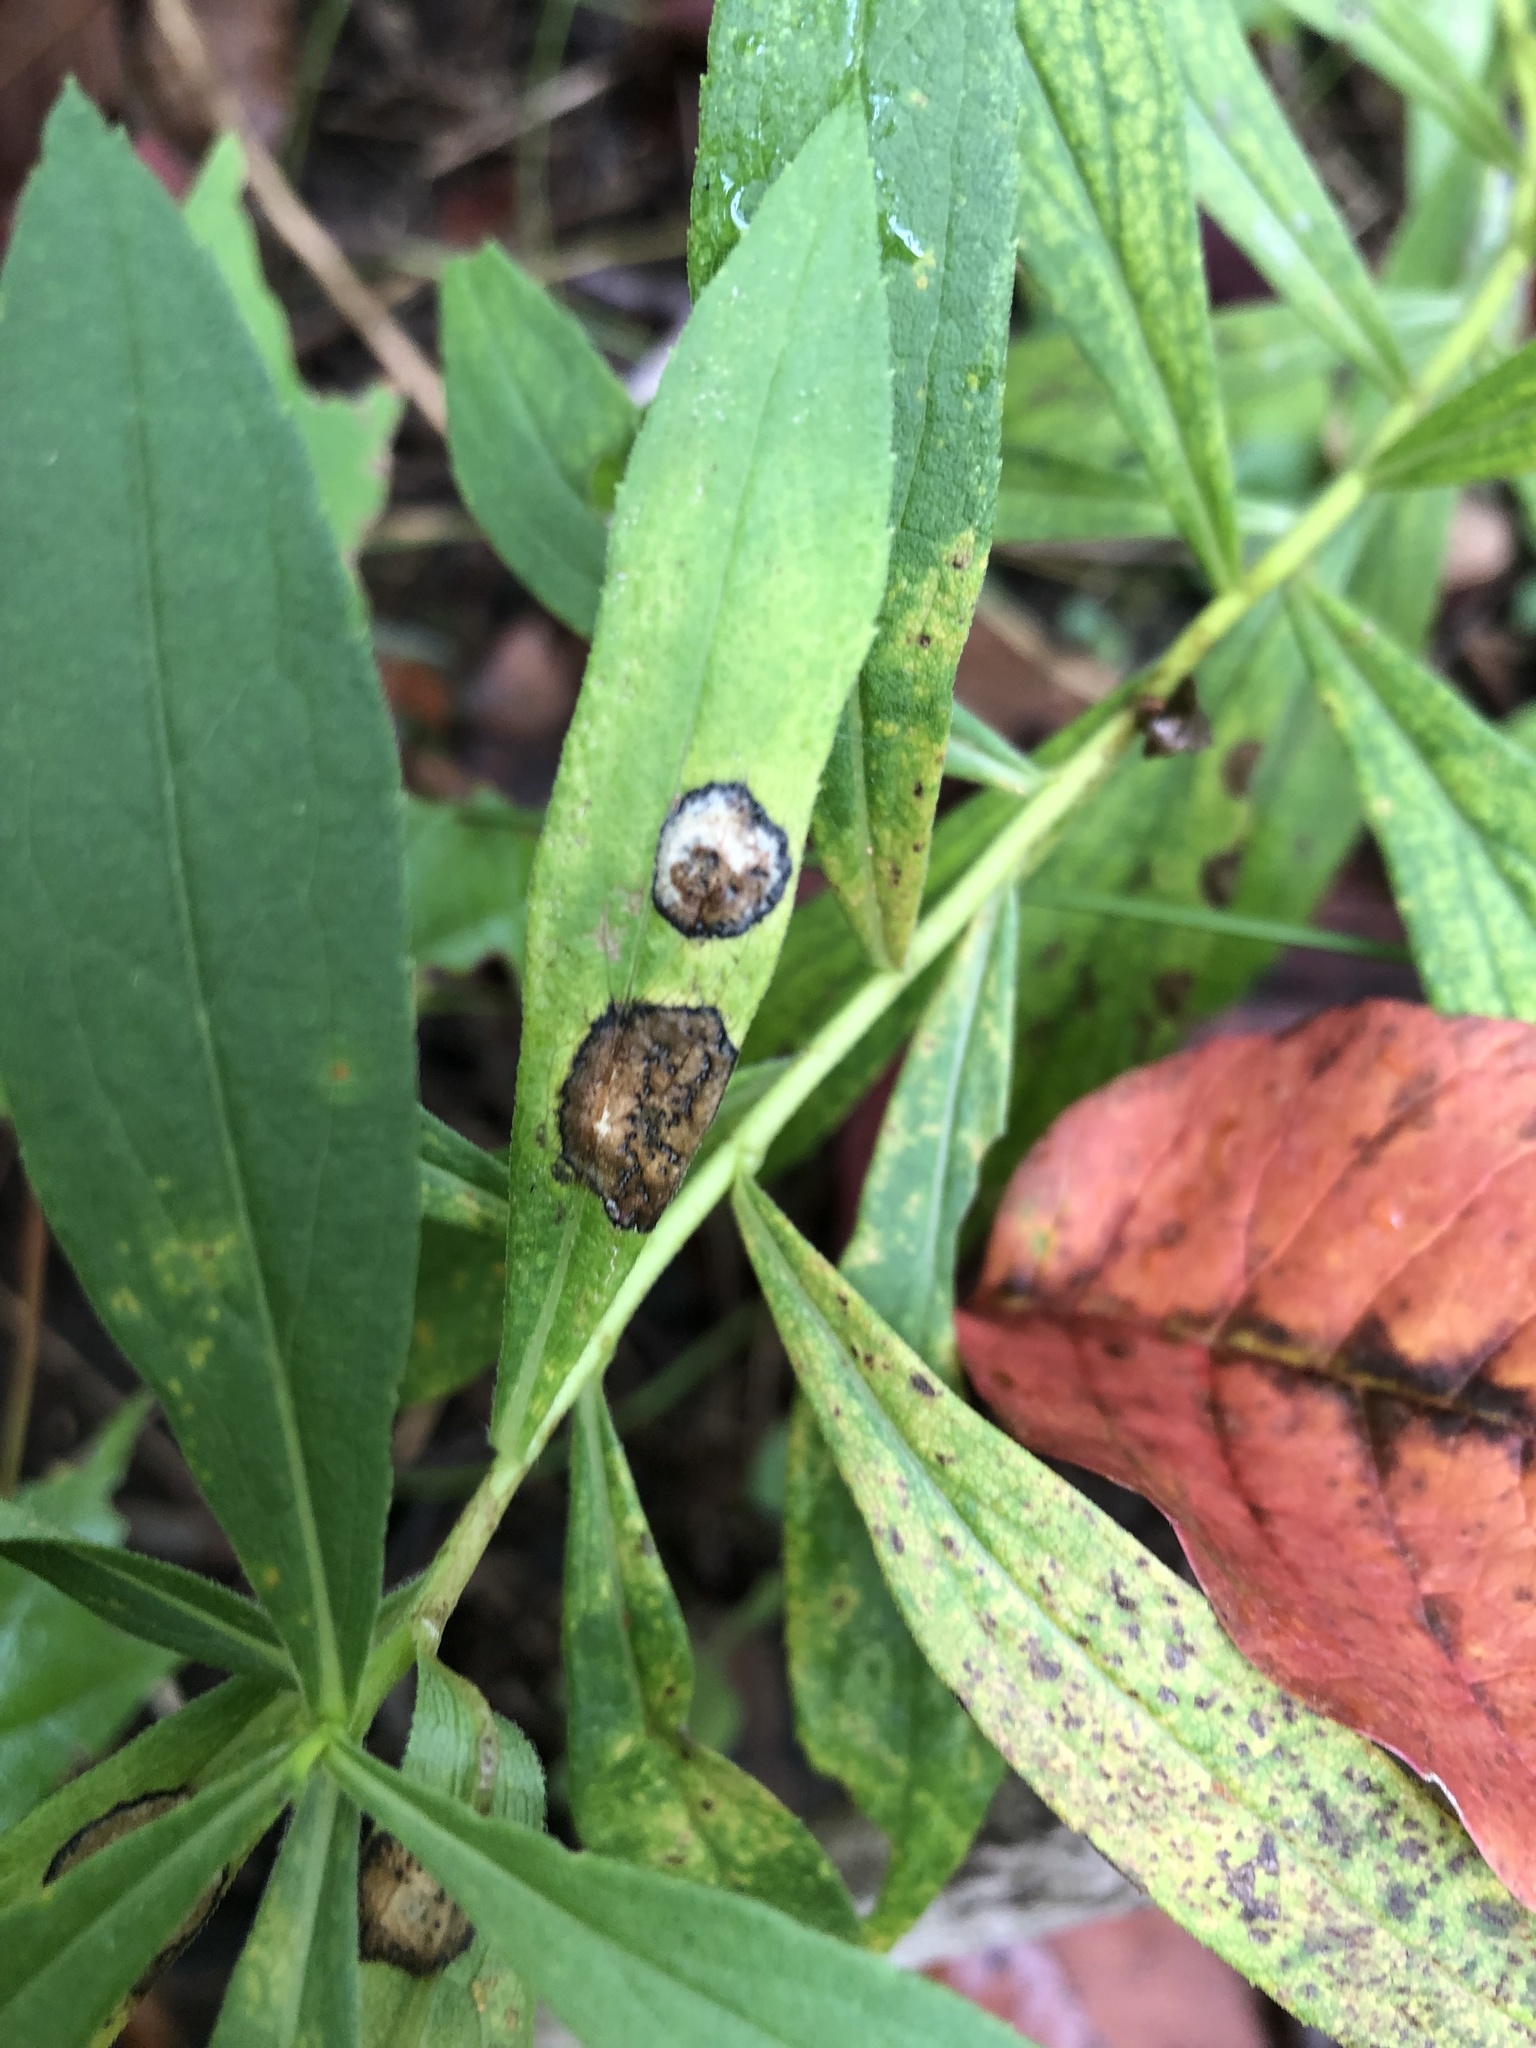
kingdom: Animalia
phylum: Arthropoda
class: Insecta
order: Diptera
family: Cecidomyiidae
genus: Asteromyia
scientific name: Asteromyia carbonifera
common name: Carbonifera goldenrod gall midge
